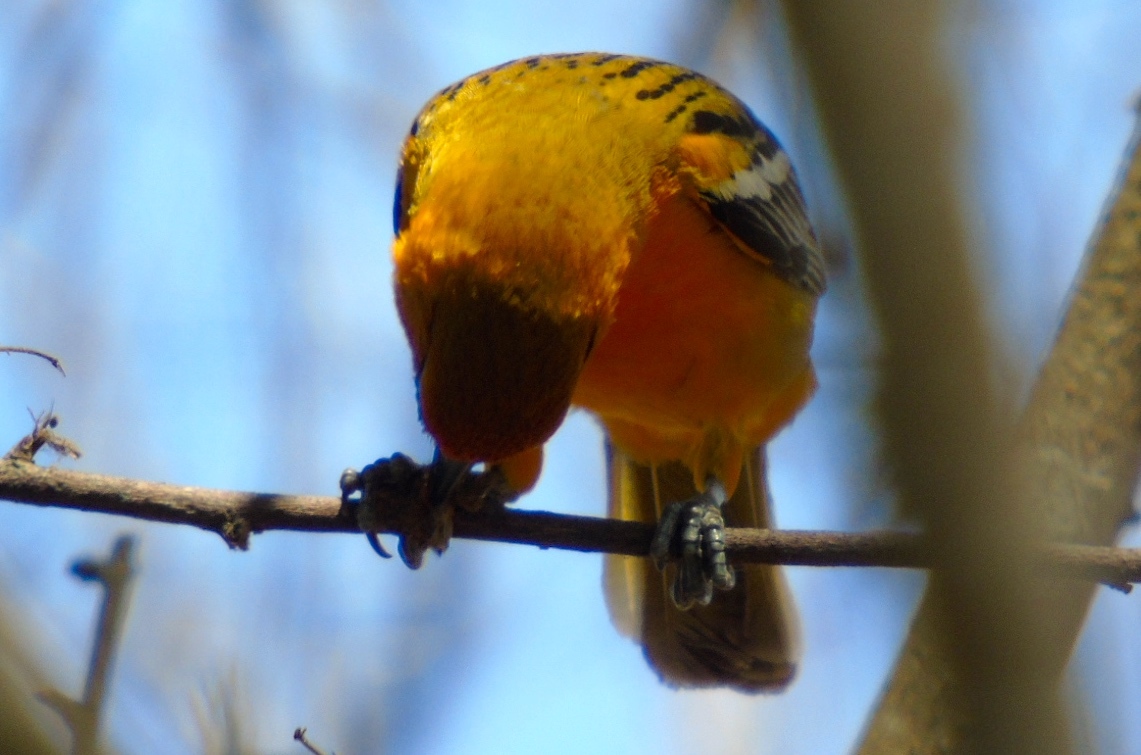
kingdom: Animalia
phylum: Chordata
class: Aves
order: Passeriformes
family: Icteridae
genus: Icterus
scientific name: Icterus pustulatus
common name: Streak-backed oriole
